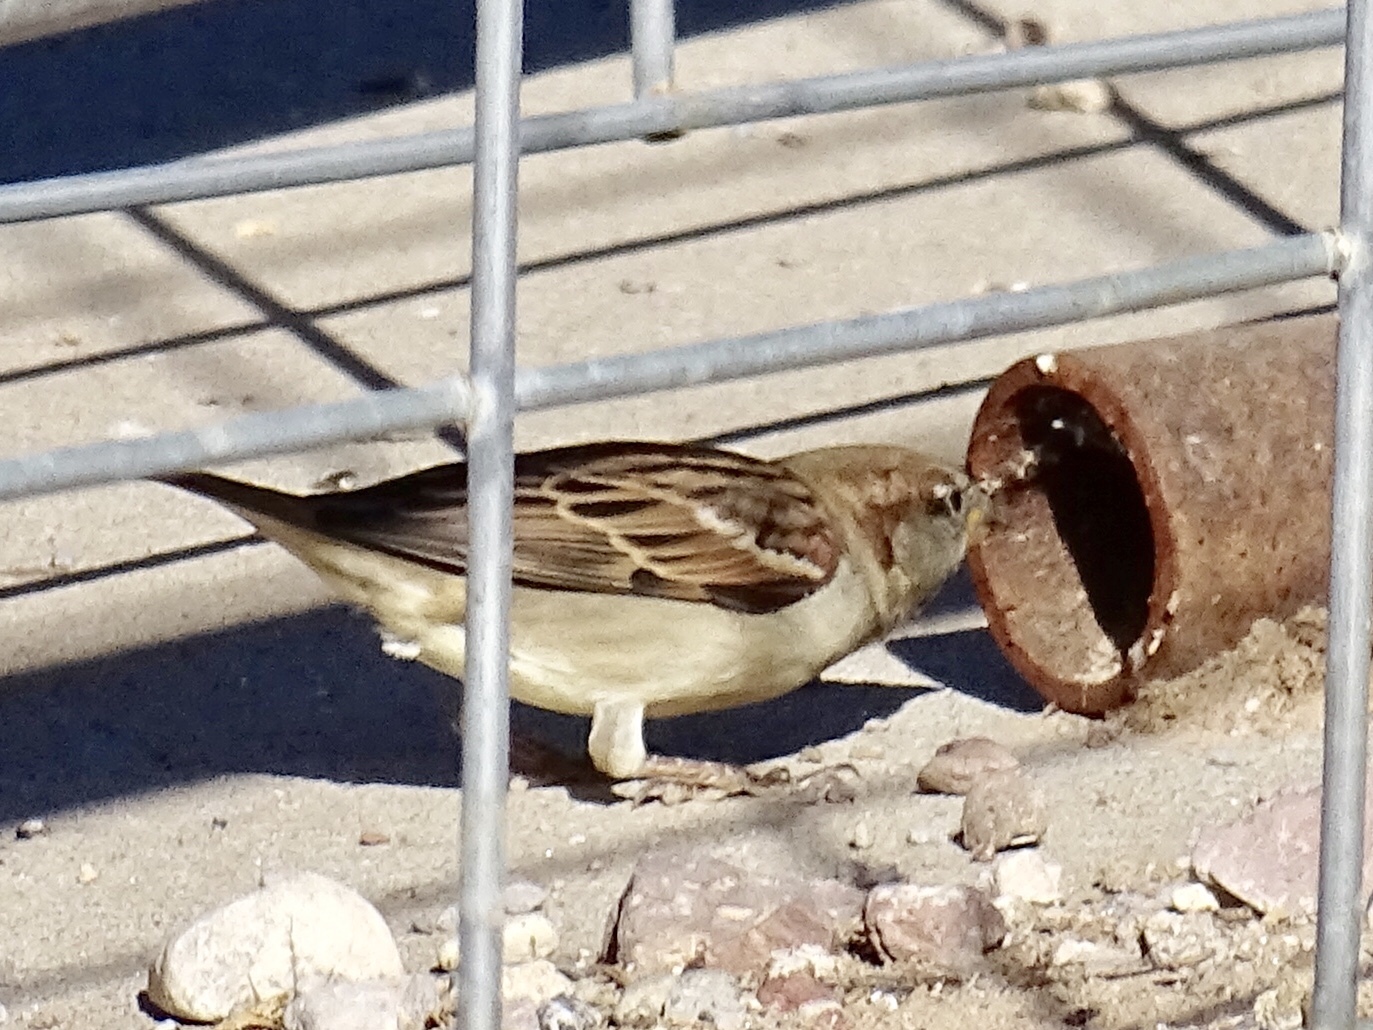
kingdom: Animalia
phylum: Chordata
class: Aves
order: Passeriformes
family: Passeridae
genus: Passer
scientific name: Passer domesticus
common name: House sparrow
